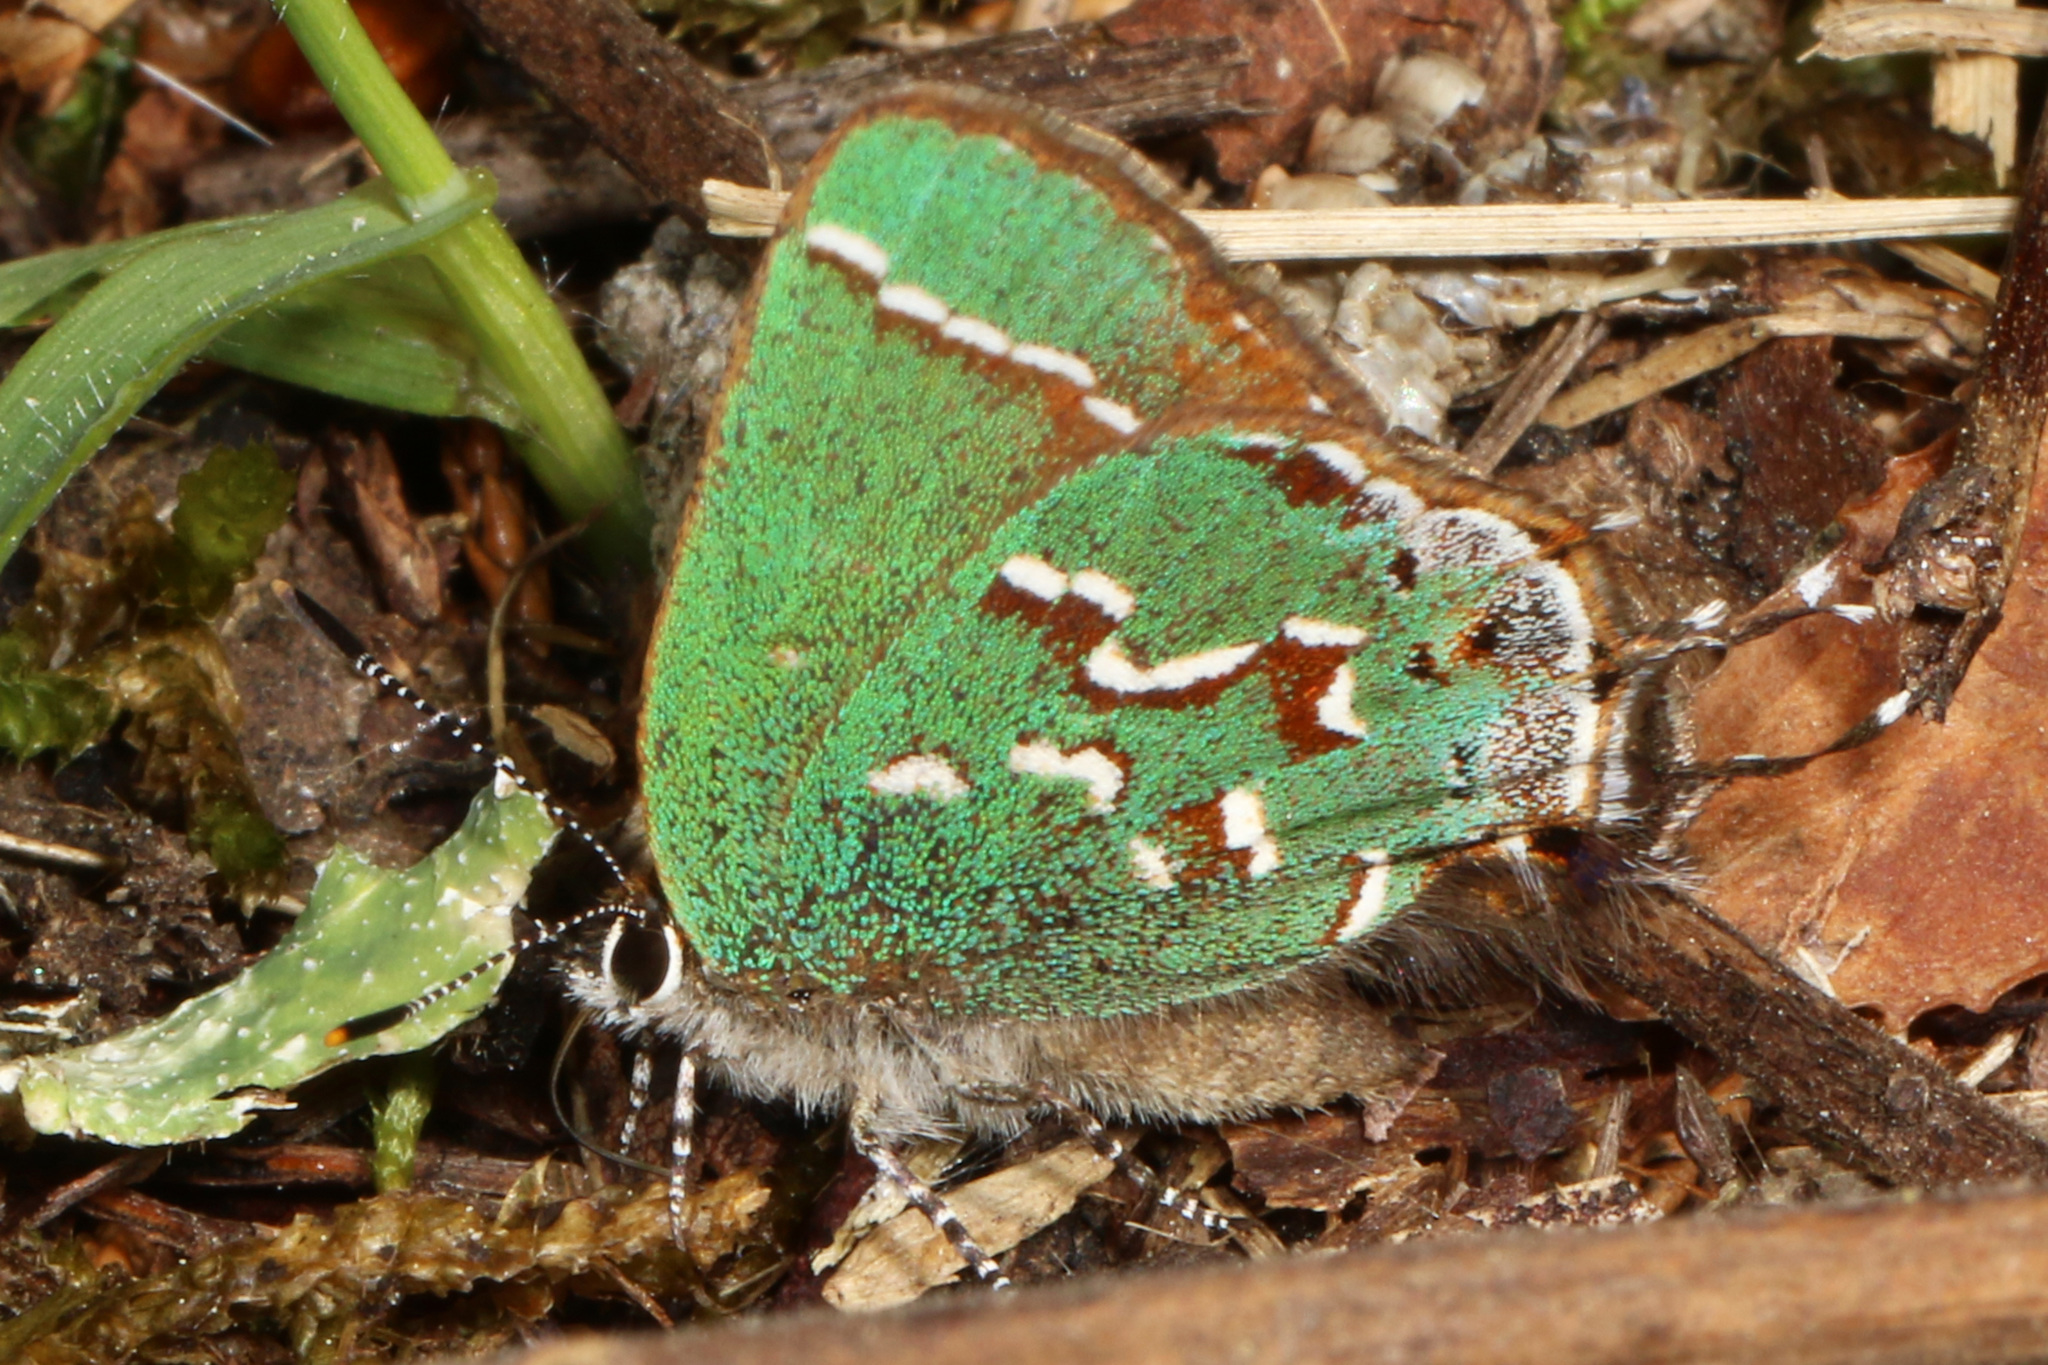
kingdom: Animalia
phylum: Arthropoda
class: Insecta
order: Lepidoptera
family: Lycaenidae
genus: Mitoura
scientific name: Mitoura gryneus
